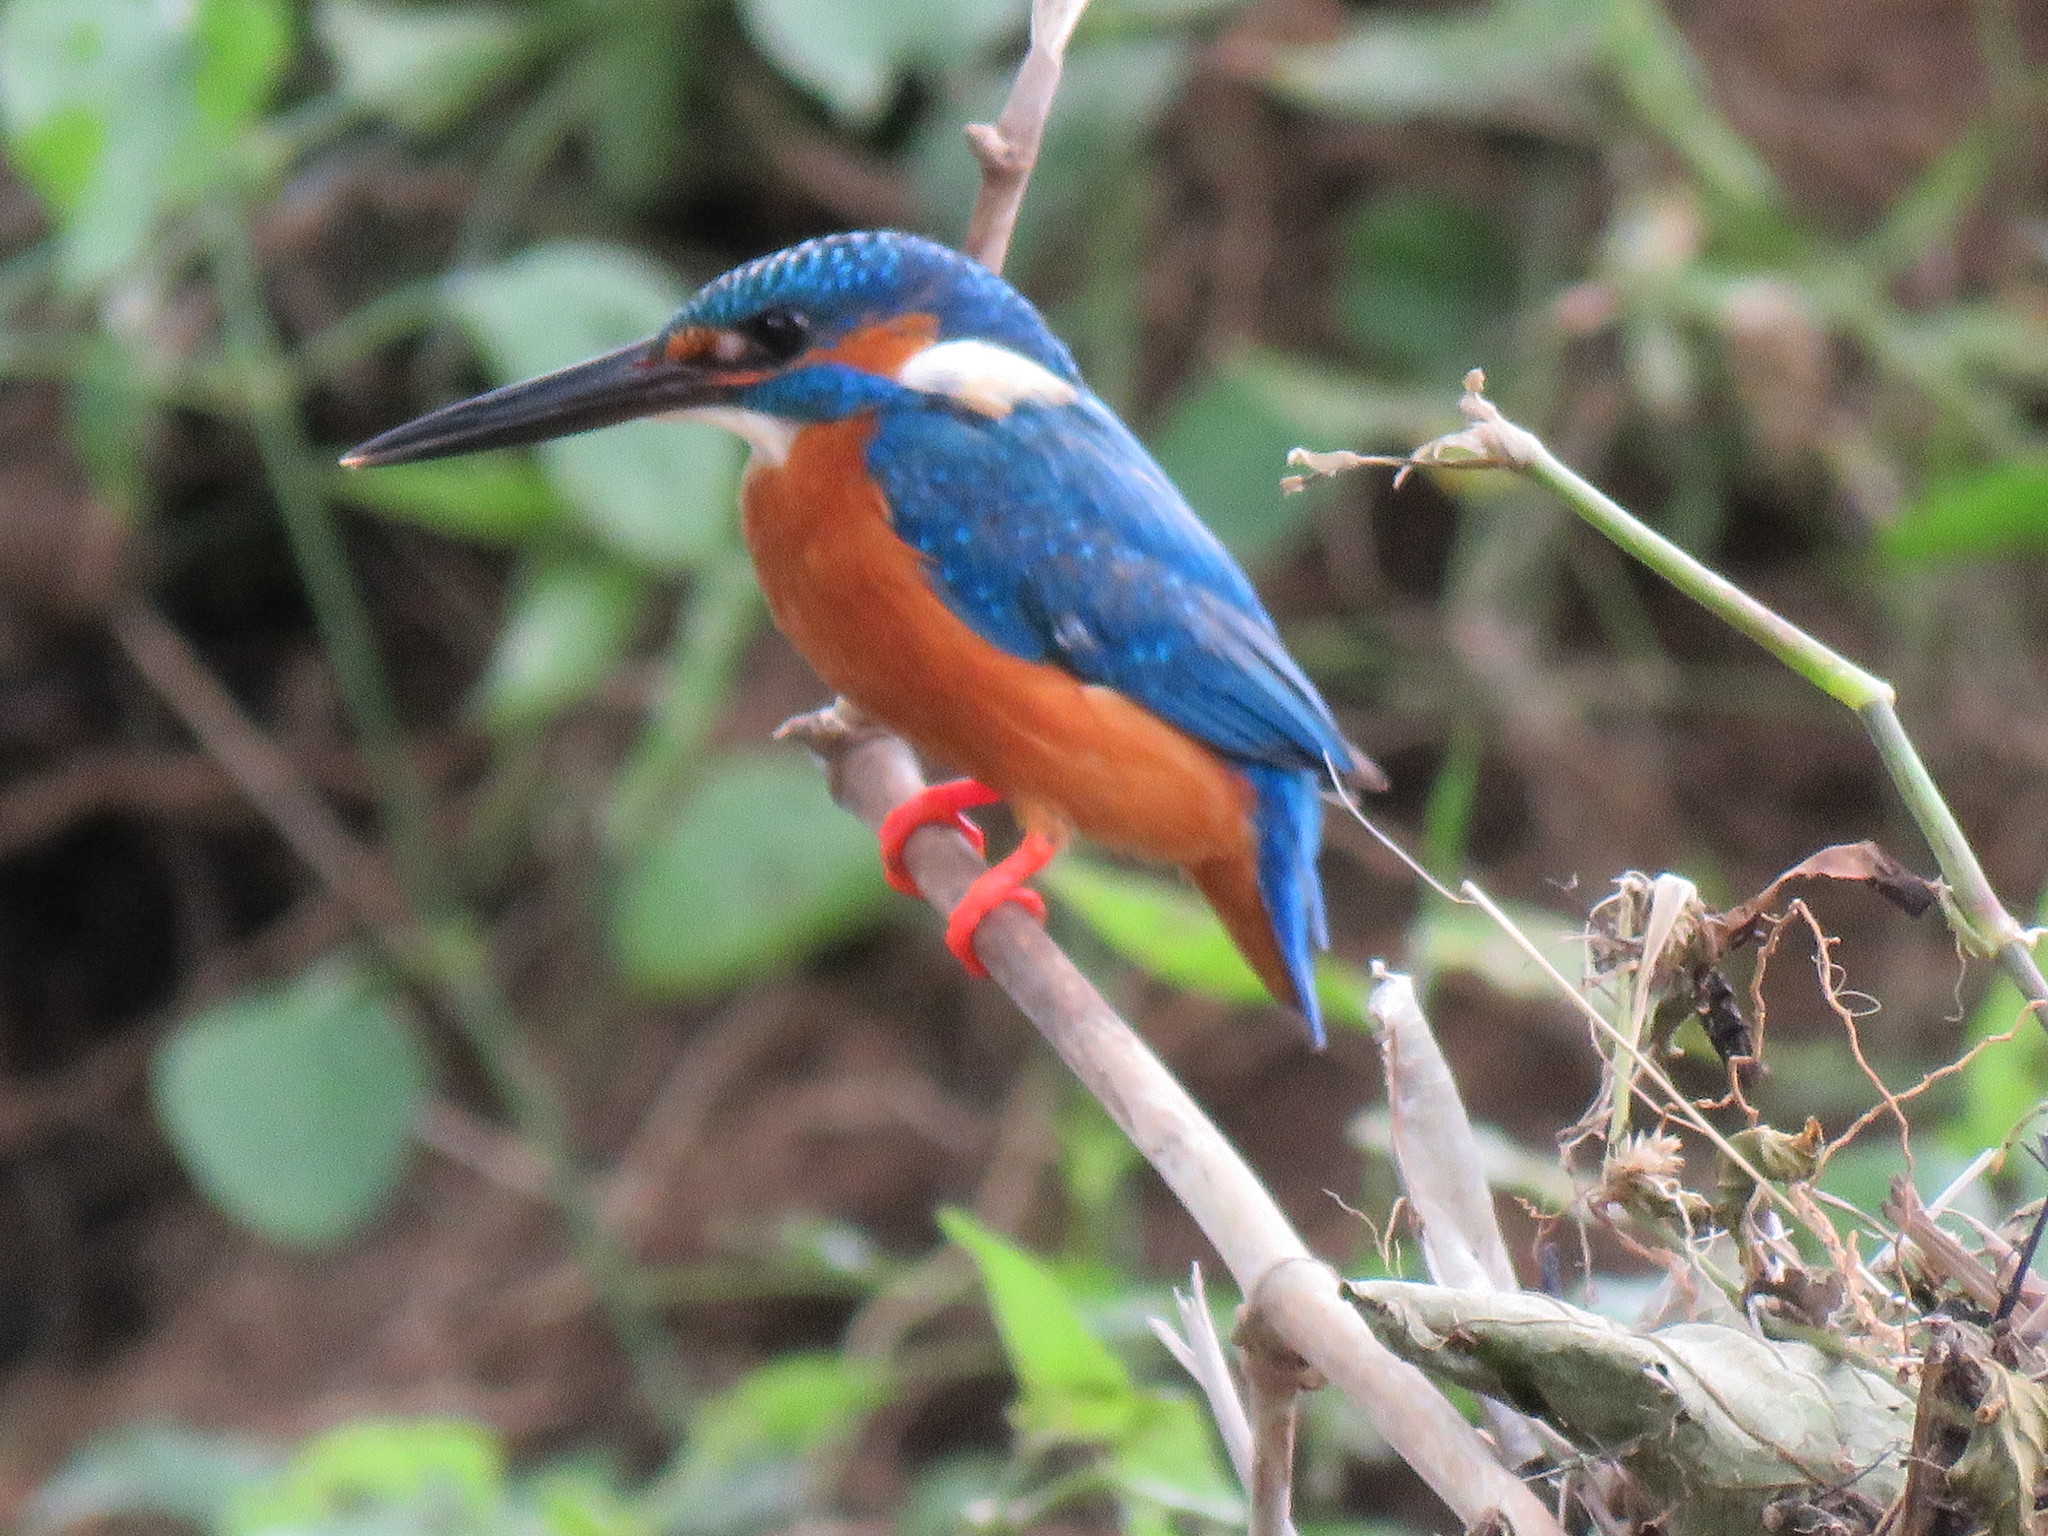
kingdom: Animalia
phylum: Chordata
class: Aves
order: Coraciiformes
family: Alcedinidae
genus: Alcedo
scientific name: Alcedo atthis
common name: Common kingfisher
